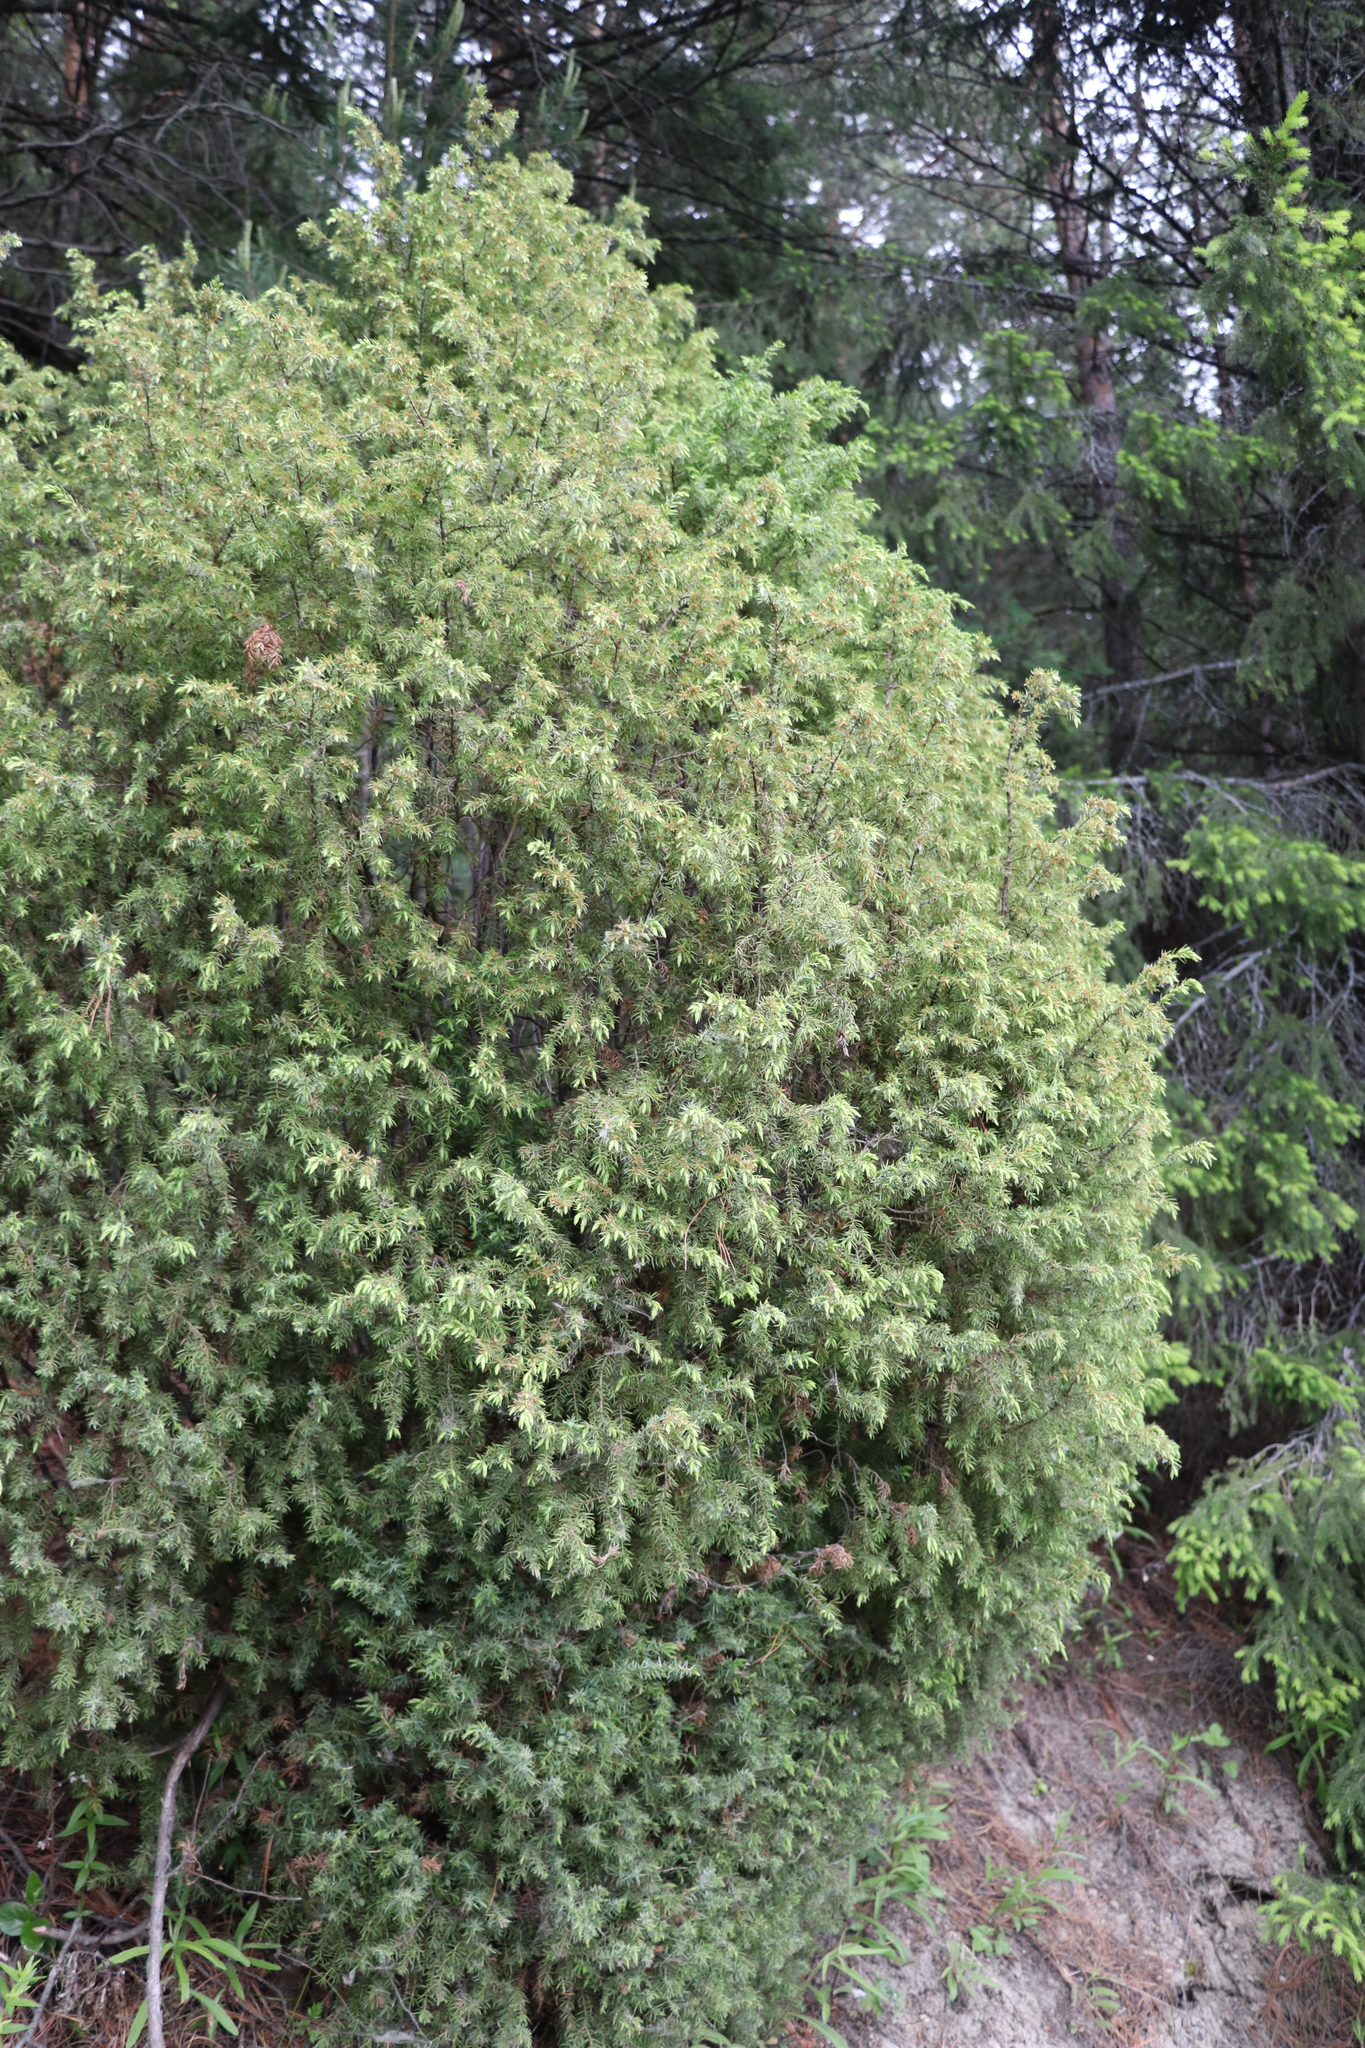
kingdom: Plantae
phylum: Tracheophyta
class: Pinopsida
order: Pinales
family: Cupressaceae
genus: Juniperus
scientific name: Juniperus communis
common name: Common juniper
